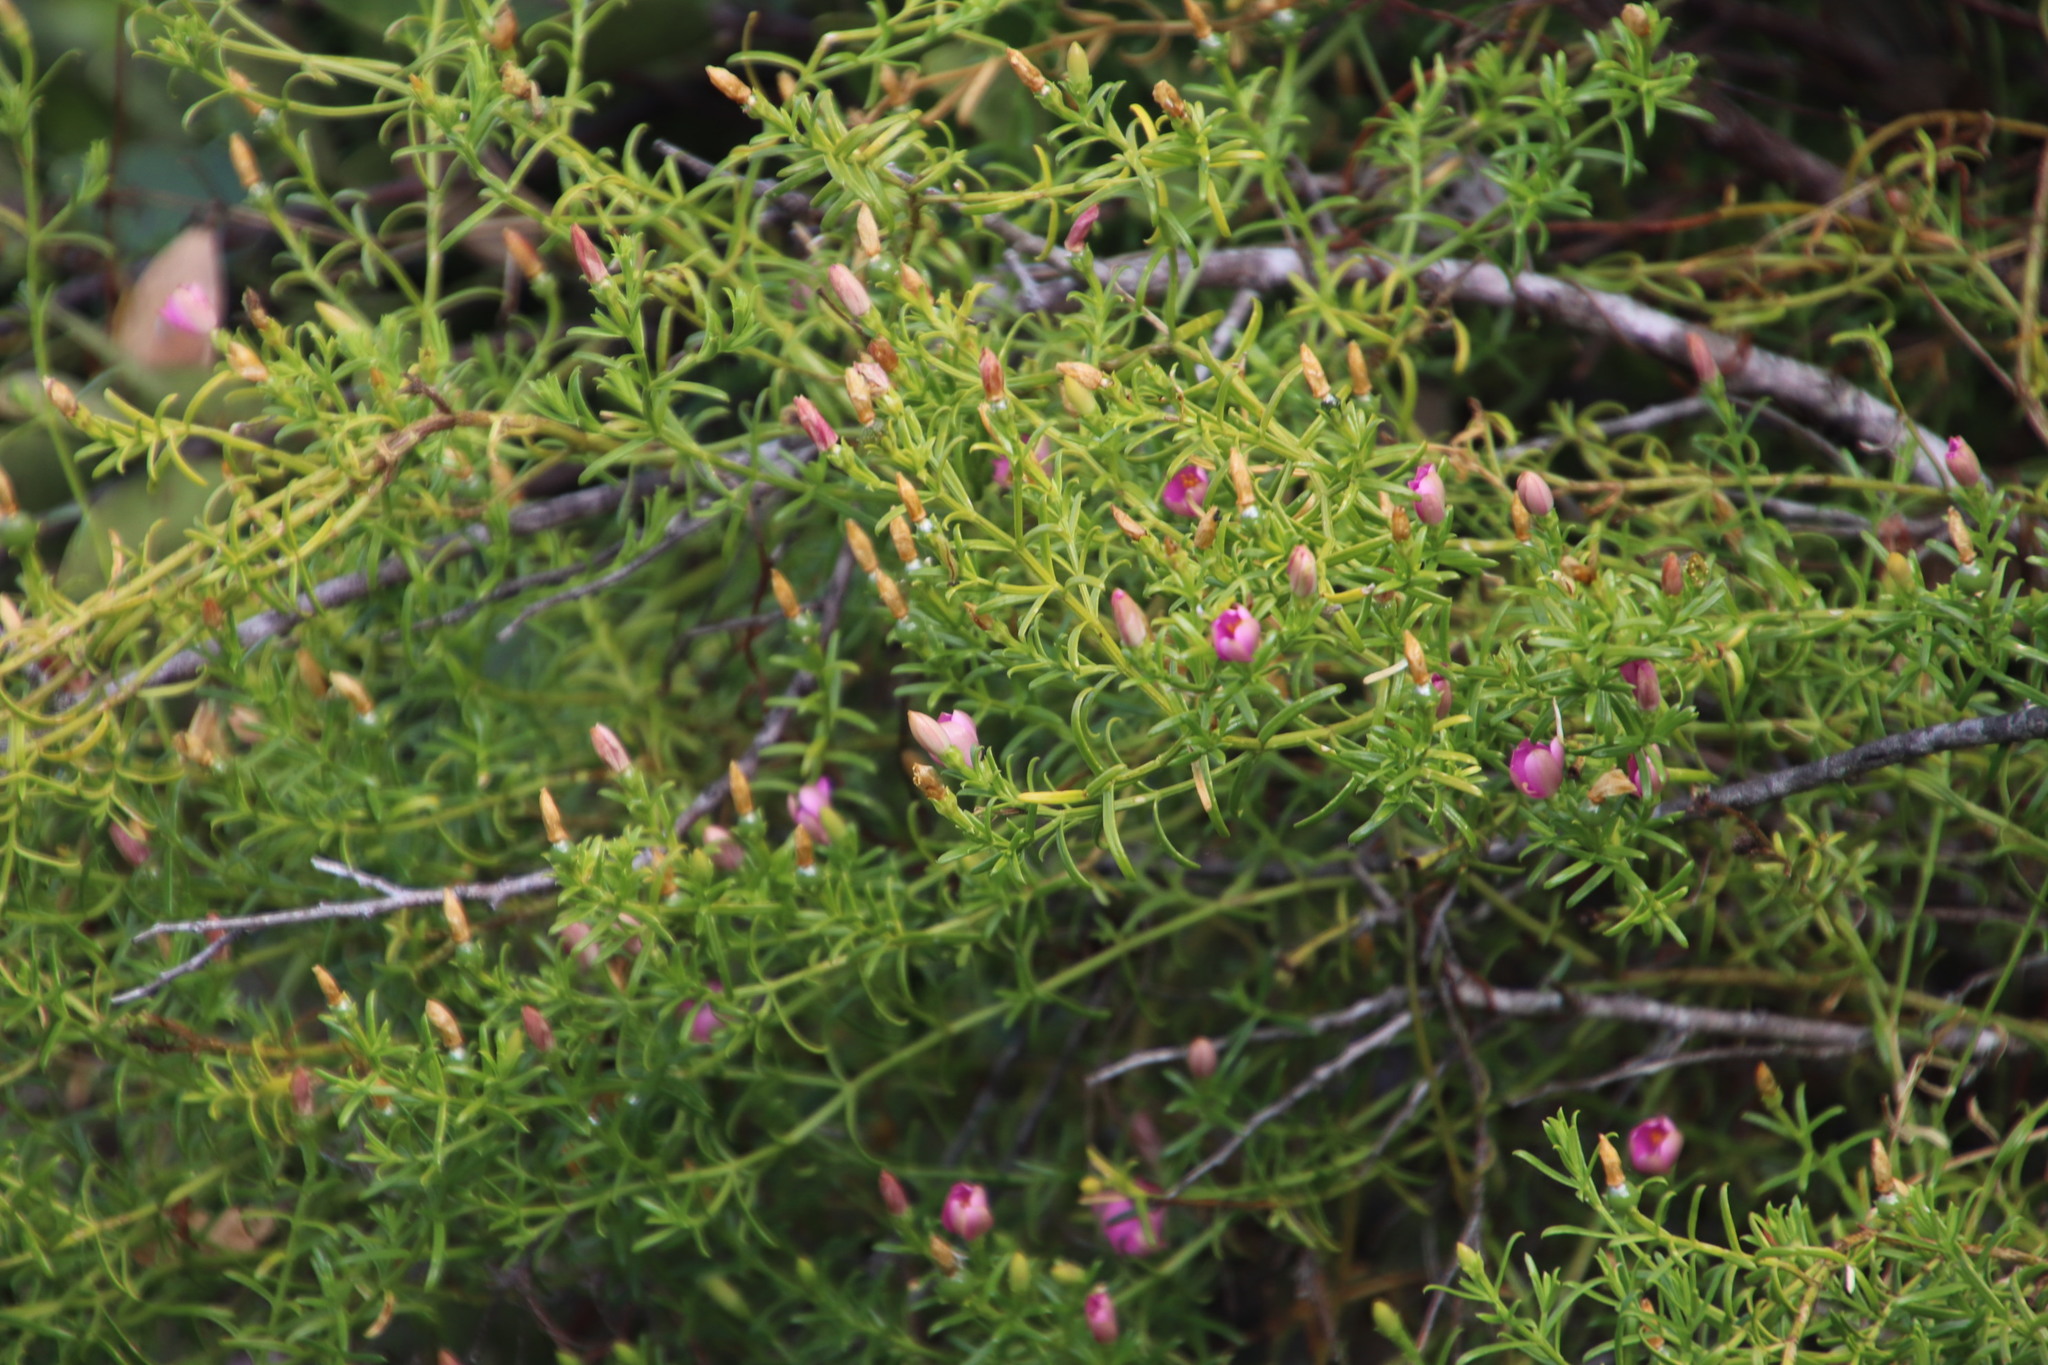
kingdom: Plantae
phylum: Tracheophyta
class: Magnoliopsida
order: Gentianales
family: Gentianaceae
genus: Chironia
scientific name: Chironia baccifera
